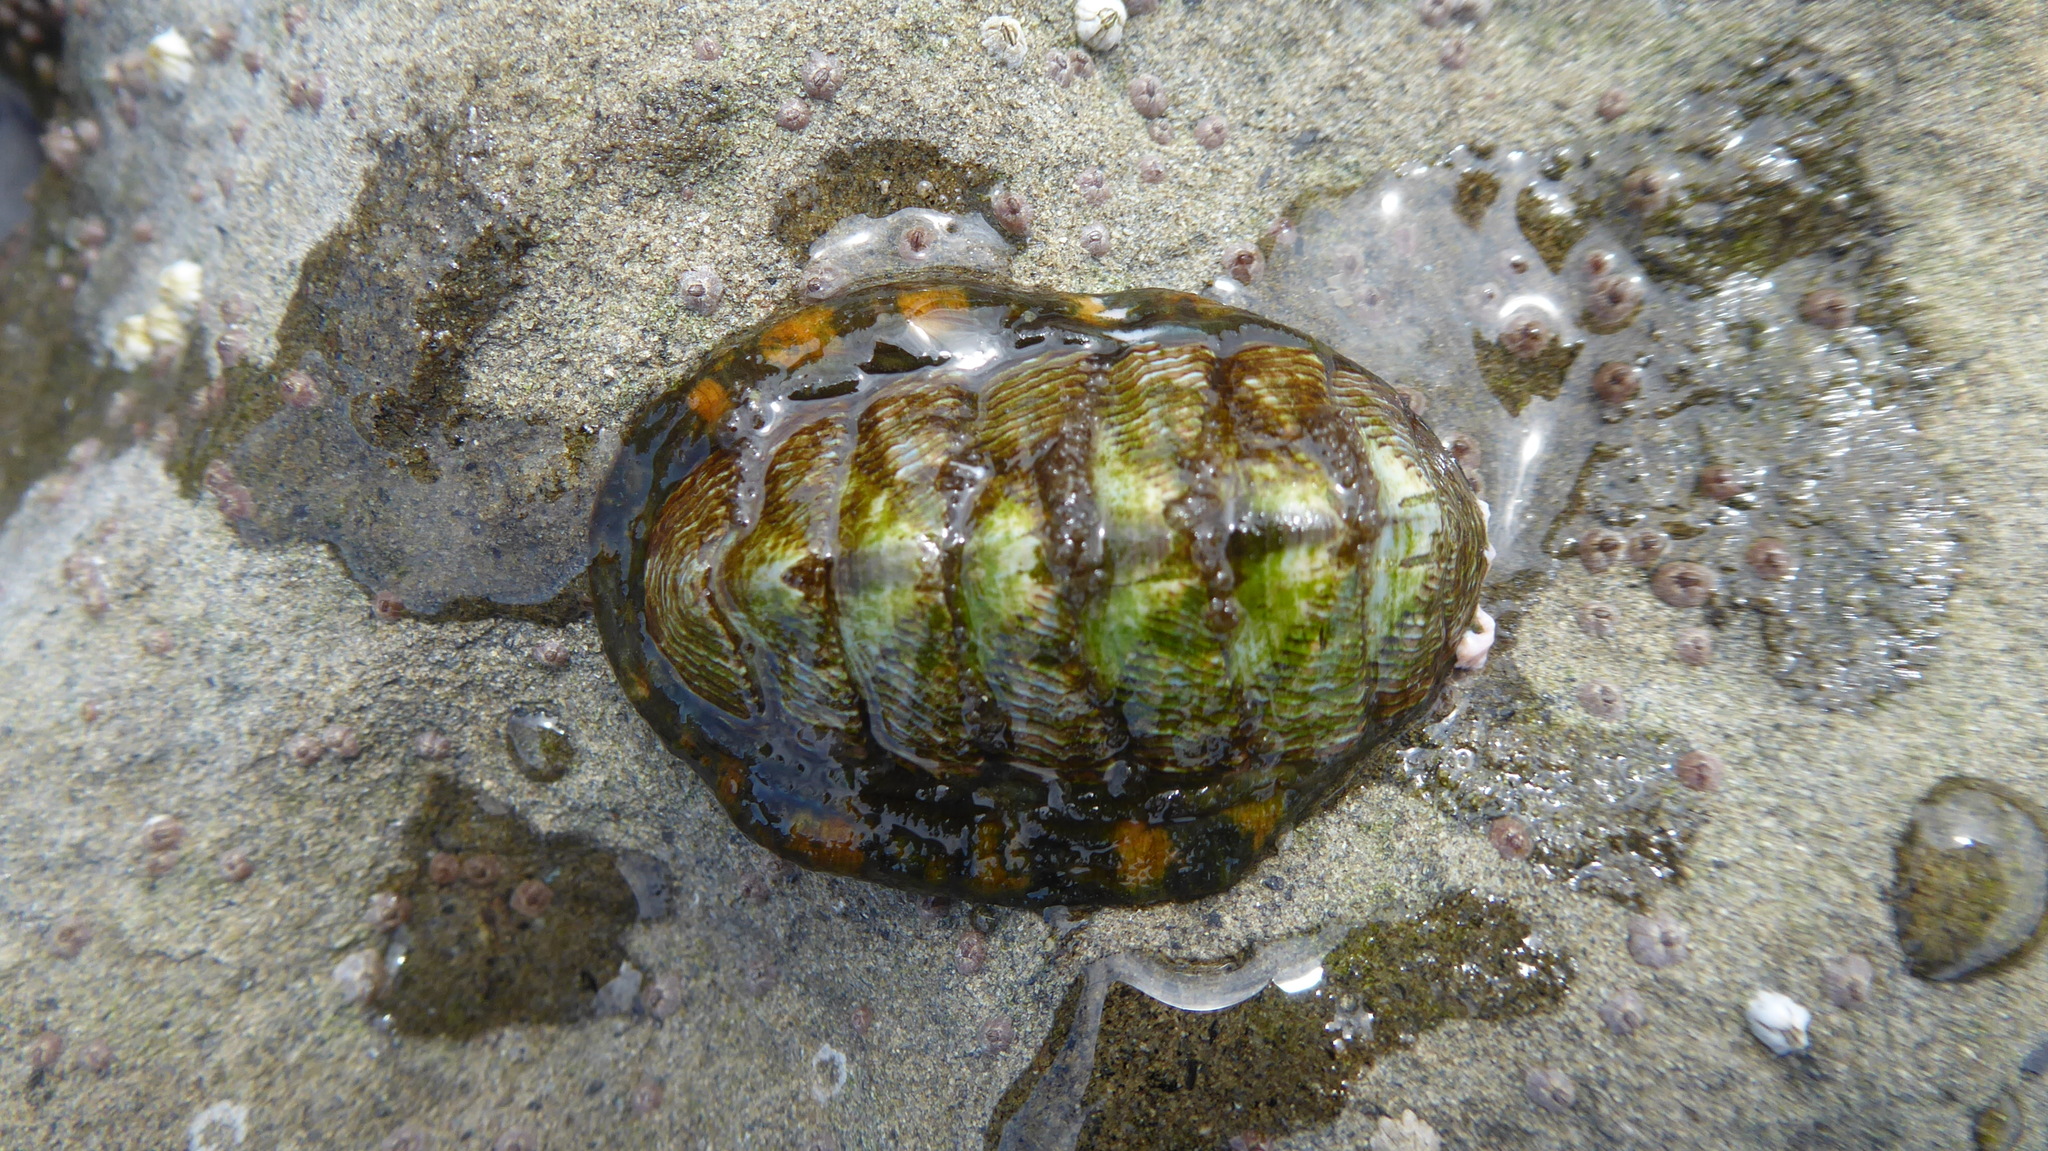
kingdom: Animalia
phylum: Mollusca
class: Polyplacophora
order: Chitonida
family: Tonicellidae
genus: Tonicella
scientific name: Tonicella lineata
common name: Lined chiton
